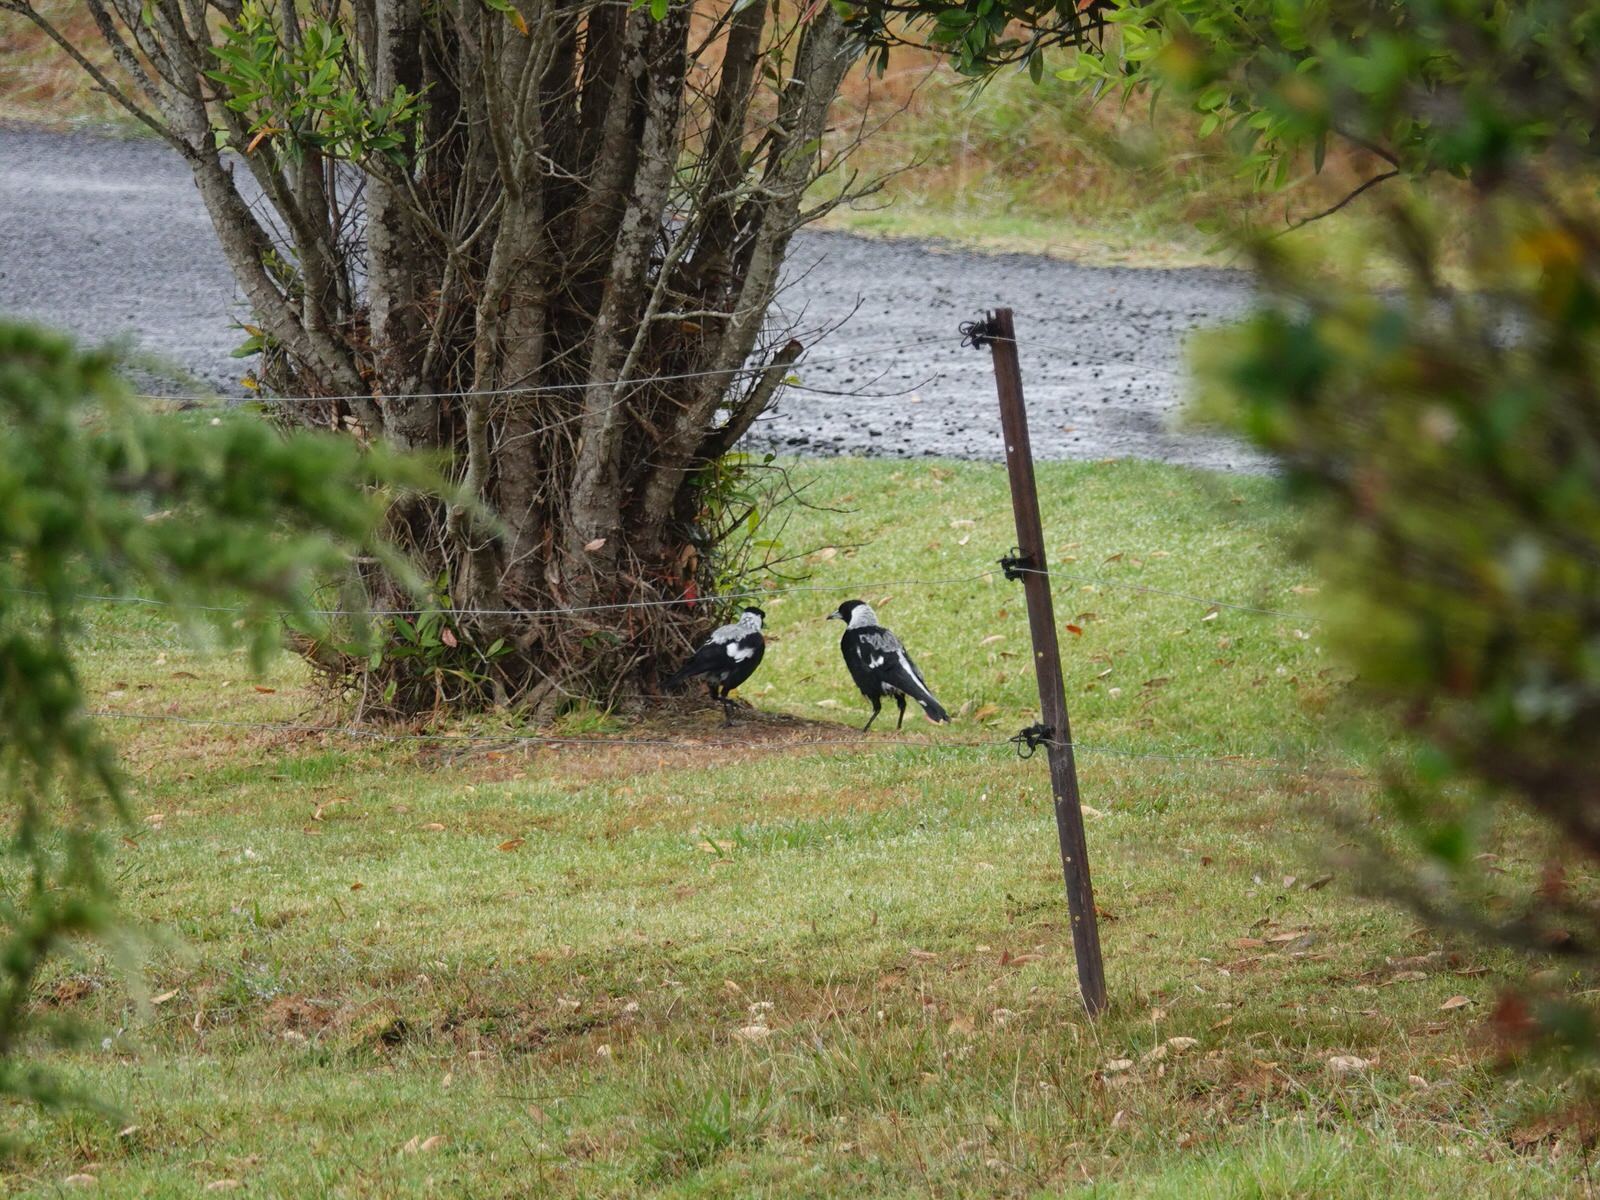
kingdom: Animalia
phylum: Chordata
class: Aves
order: Passeriformes
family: Cracticidae
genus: Gymnorhina
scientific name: Gymnorhina tibicen
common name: Australian magpie
